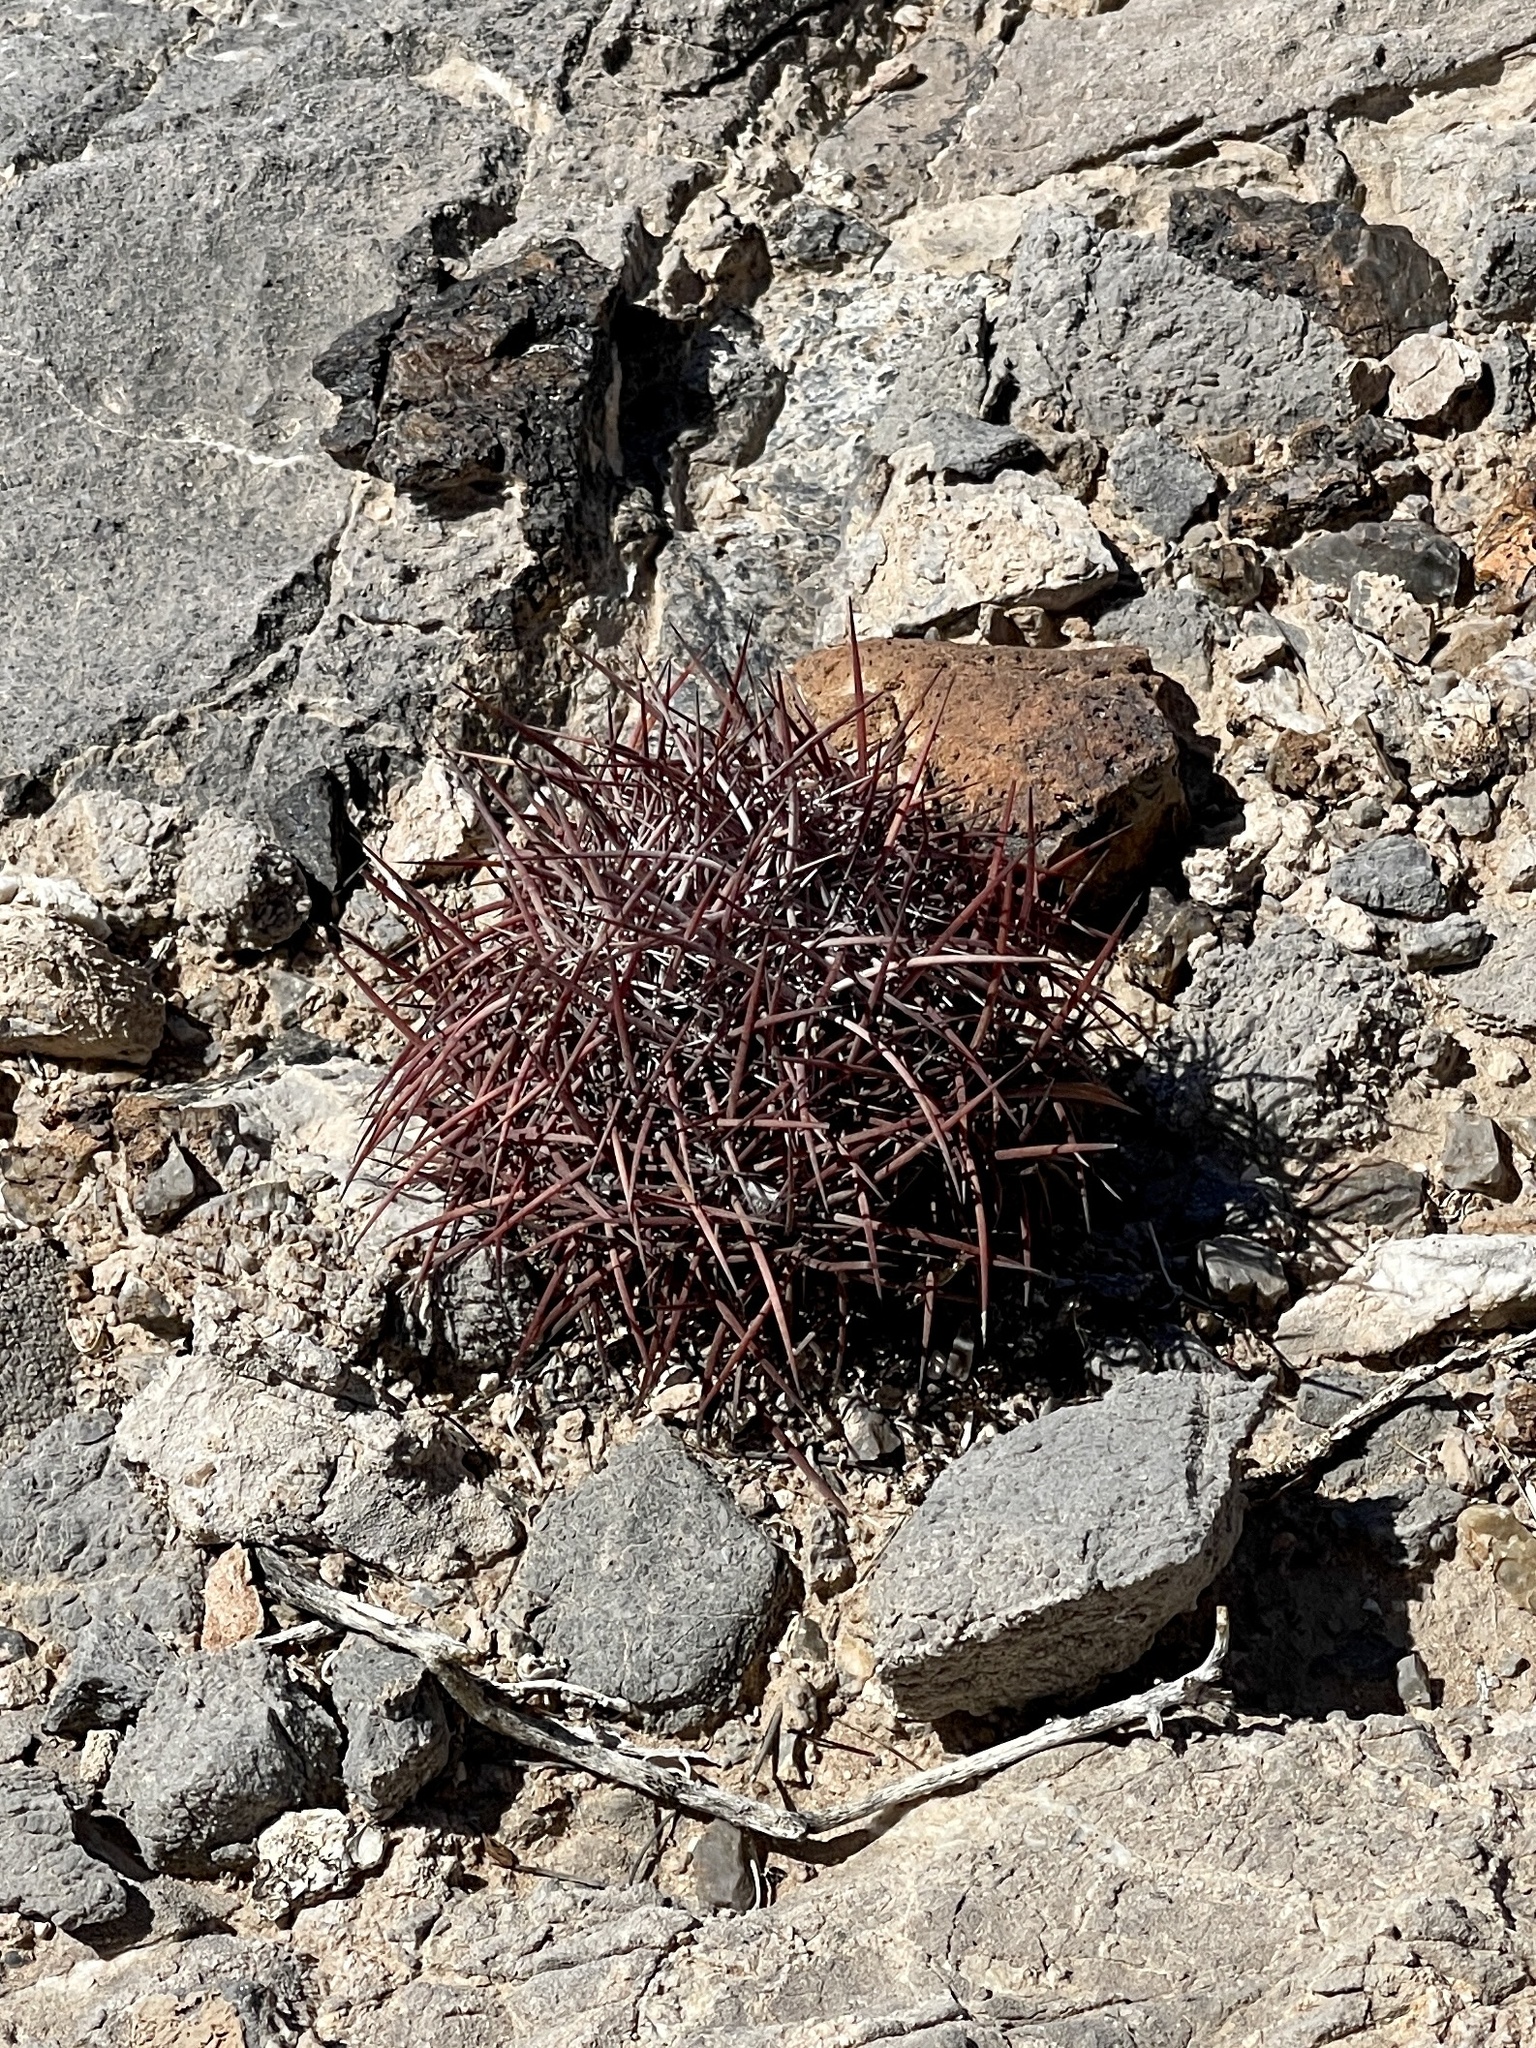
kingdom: Plantae
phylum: Tracheophyta
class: Magnoliopsida
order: Caryophyllales
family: Cactaceae
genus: Ferocactus
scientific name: Ferocactus cylindraceus
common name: California barrel cactus
